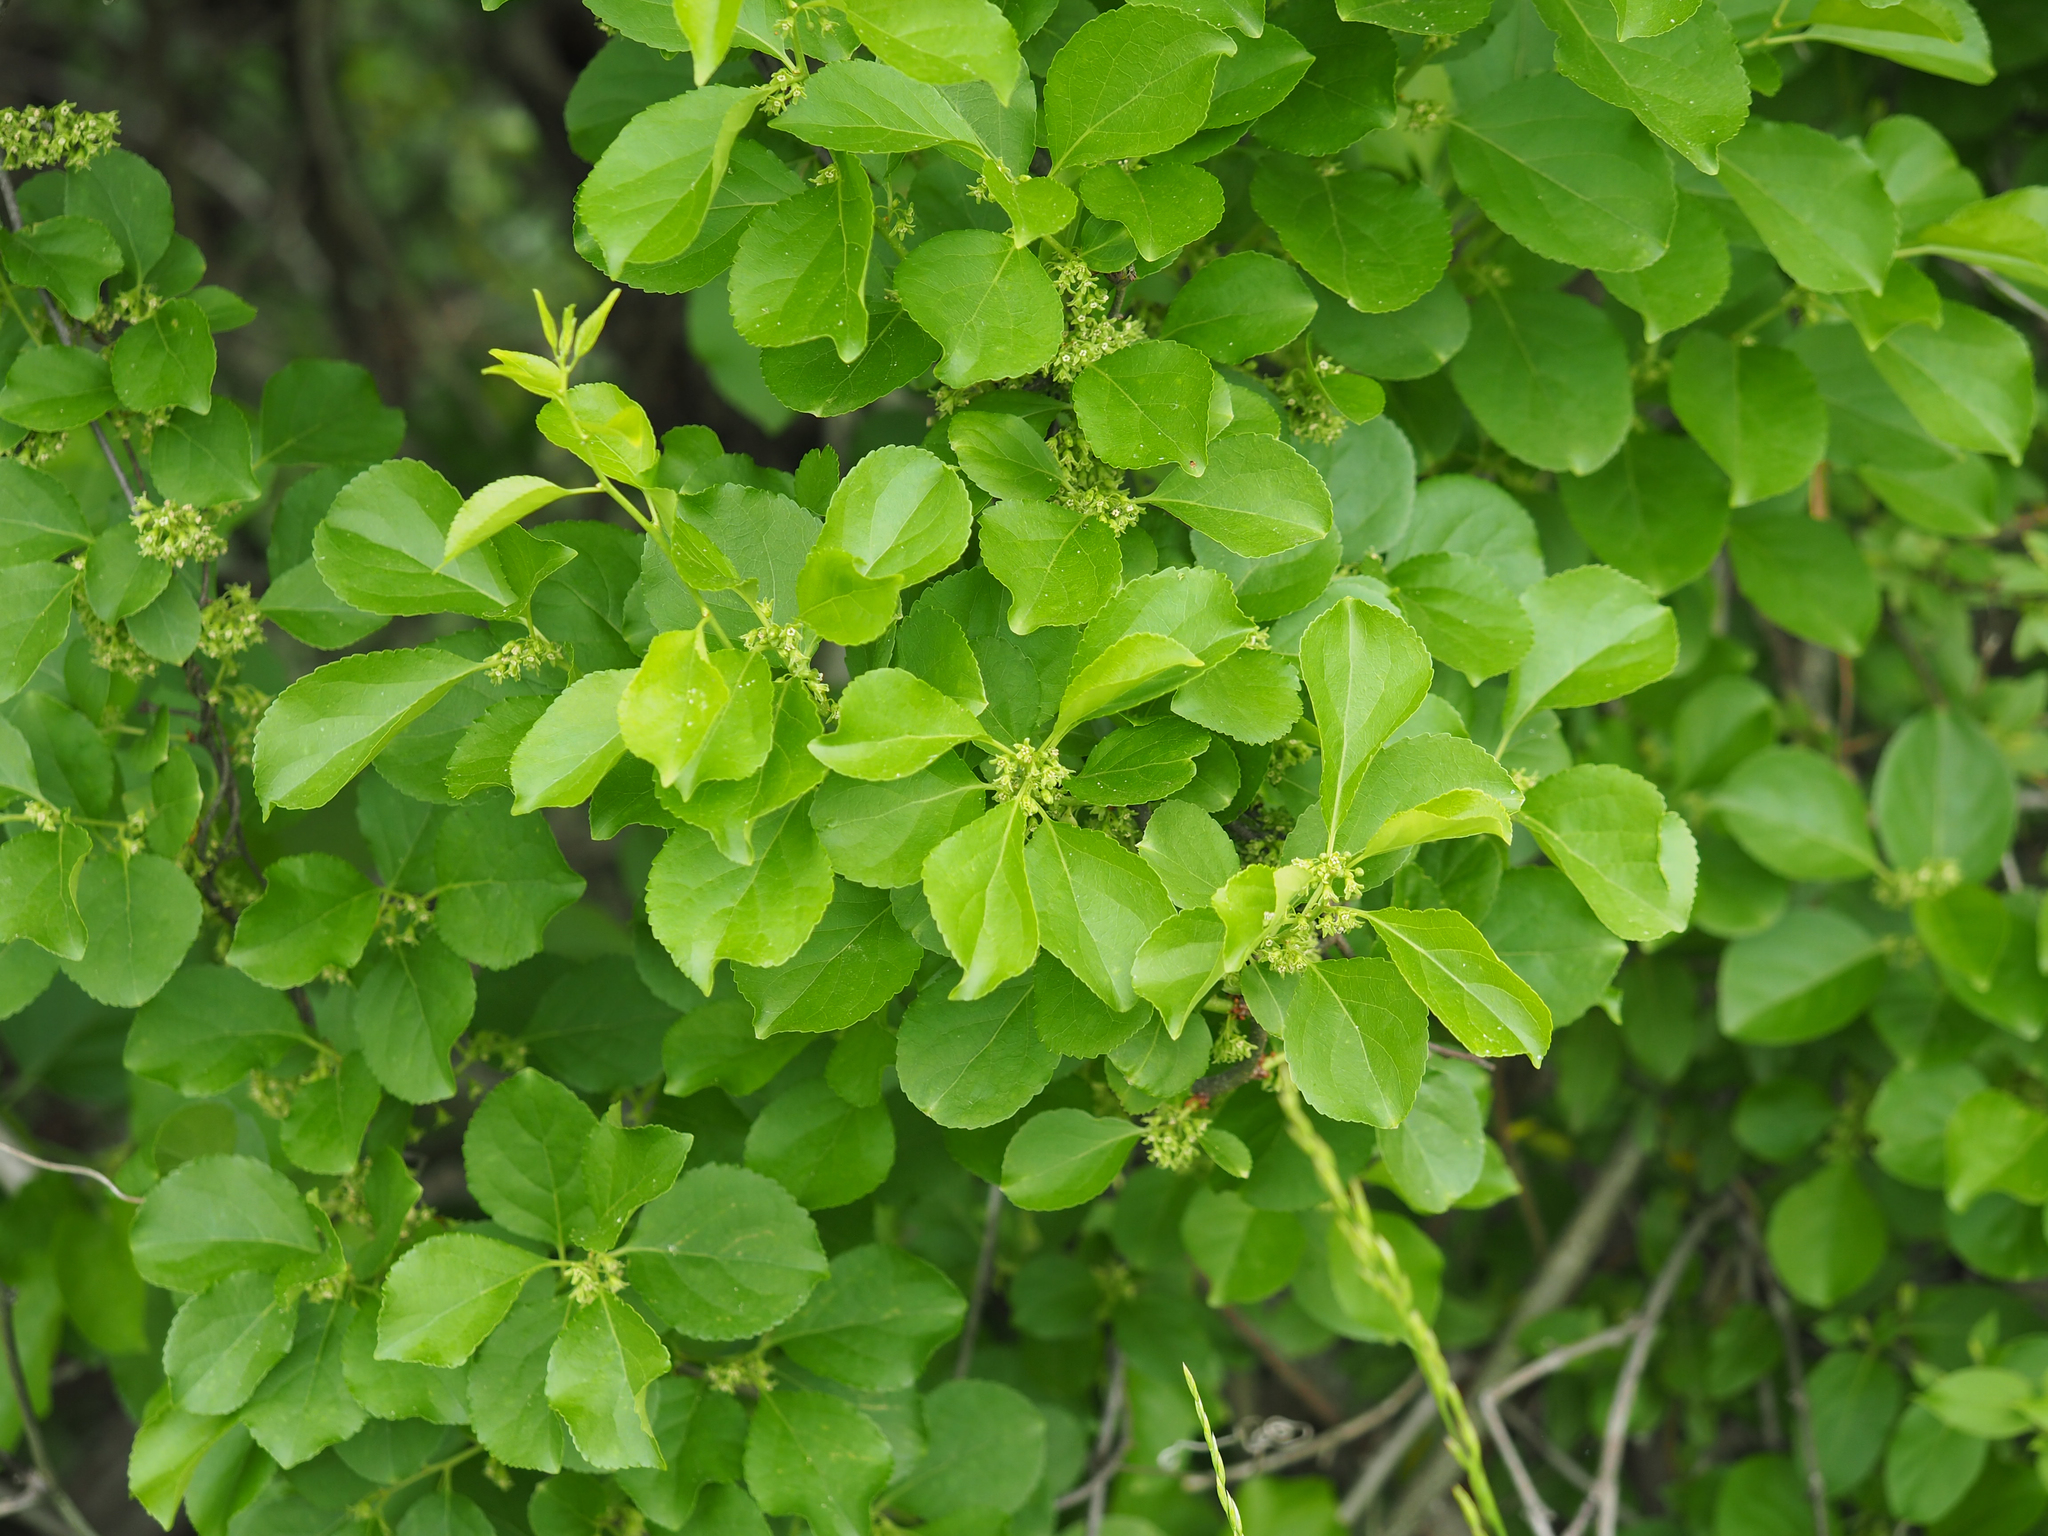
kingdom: Plantae
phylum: Tracheophyta
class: Magnoliopsida
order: Celastrales
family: Celastraceae
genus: Celastrus
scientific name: Celastrus orbiculatus
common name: Oriental bittersweet
